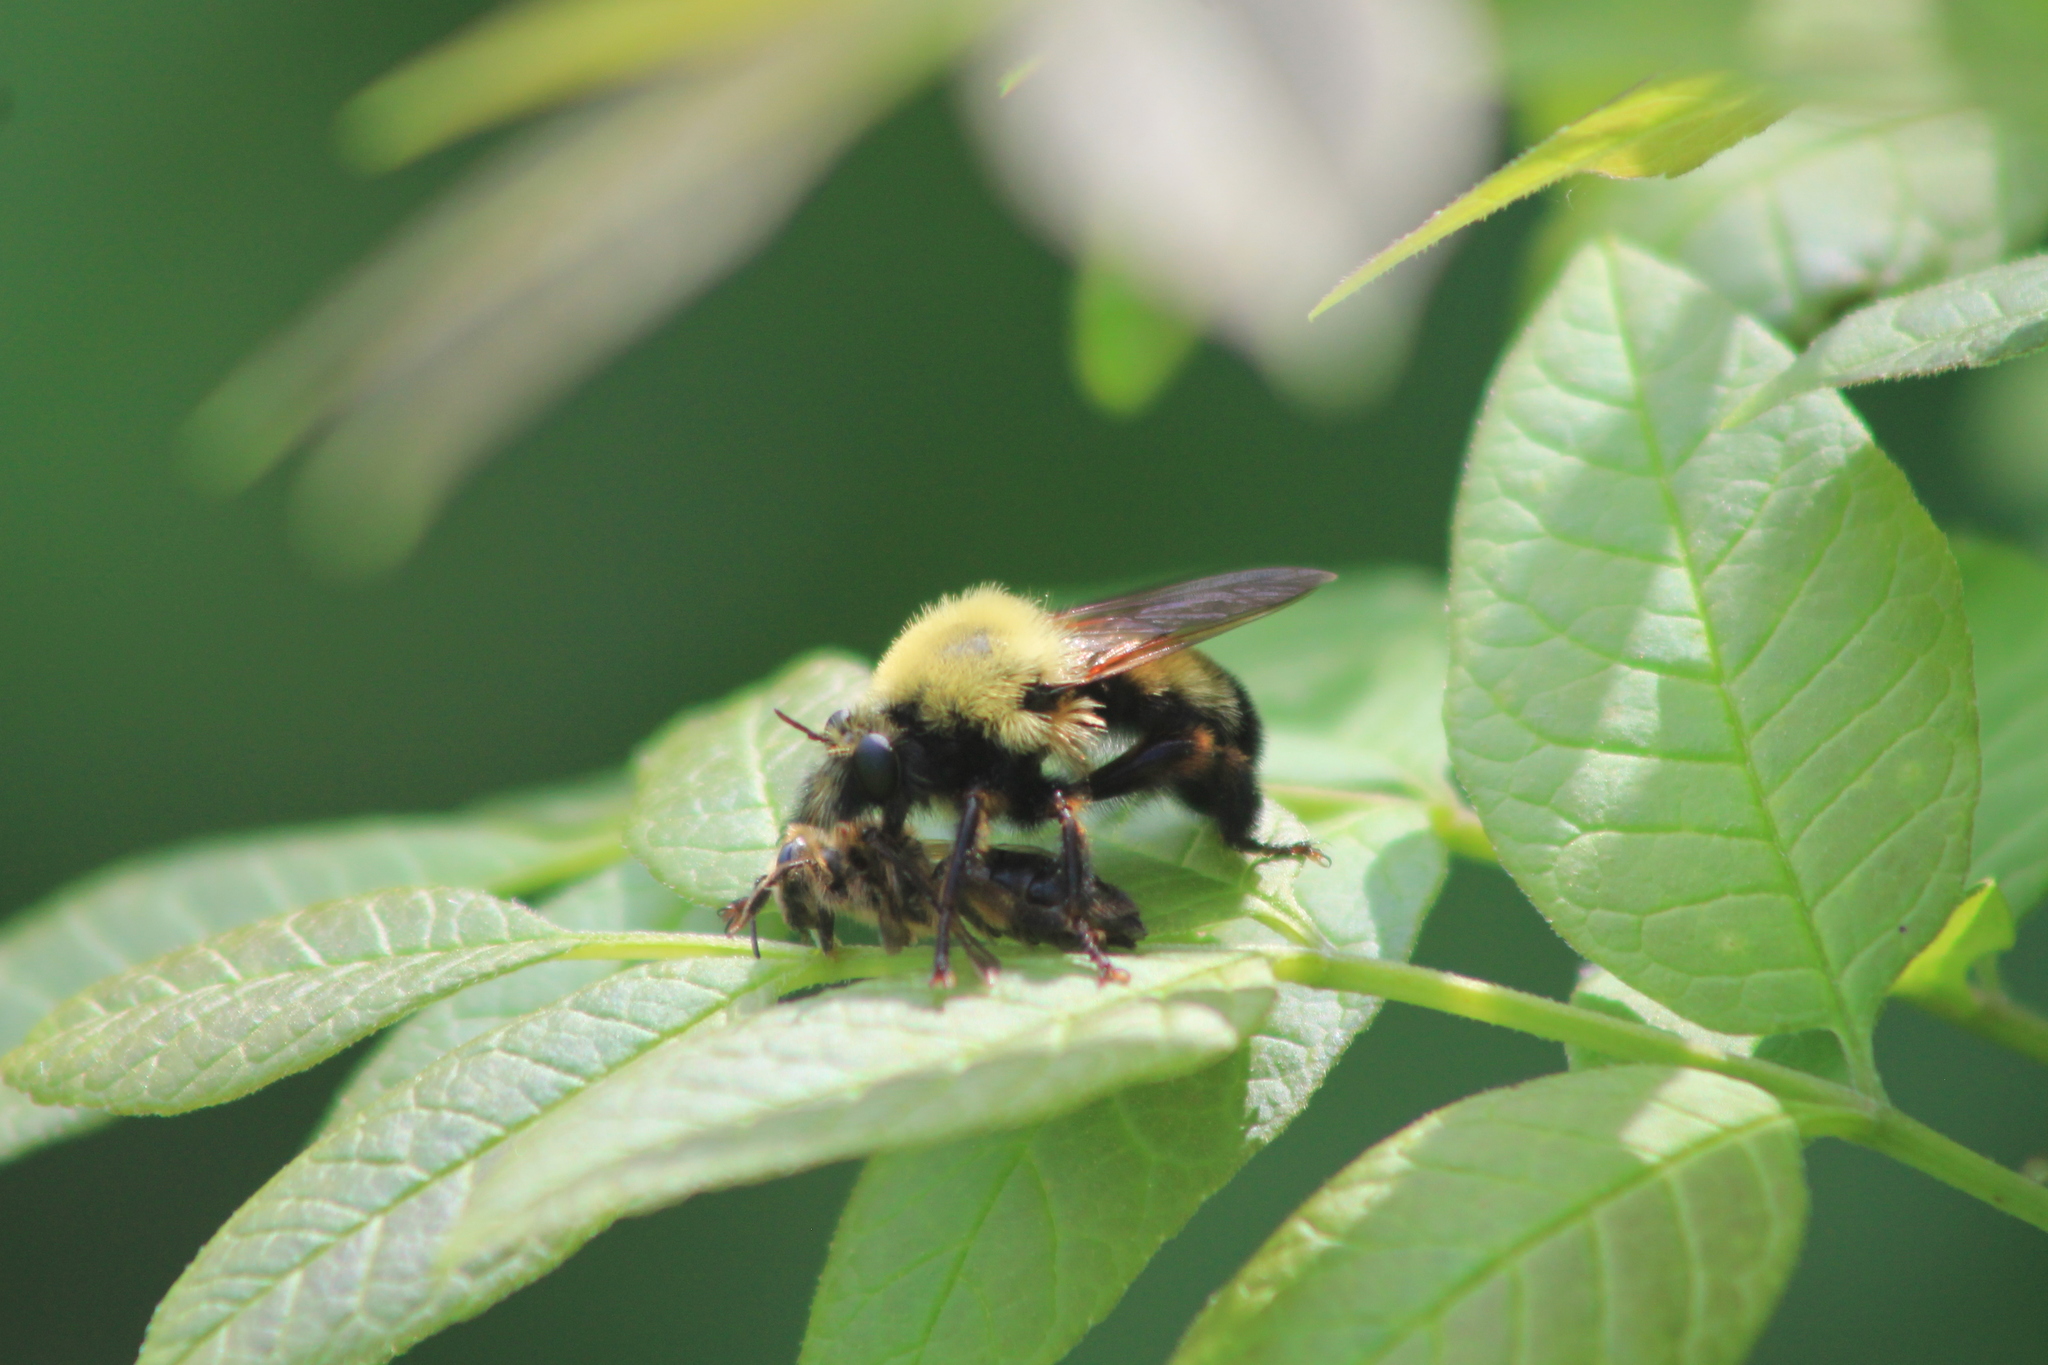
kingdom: Animalia
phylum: Arthropoda
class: Insecta
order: Diptera
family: Asilidae
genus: Laphria
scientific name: Laphria thoracica
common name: Bumble bee mimic robber fly
